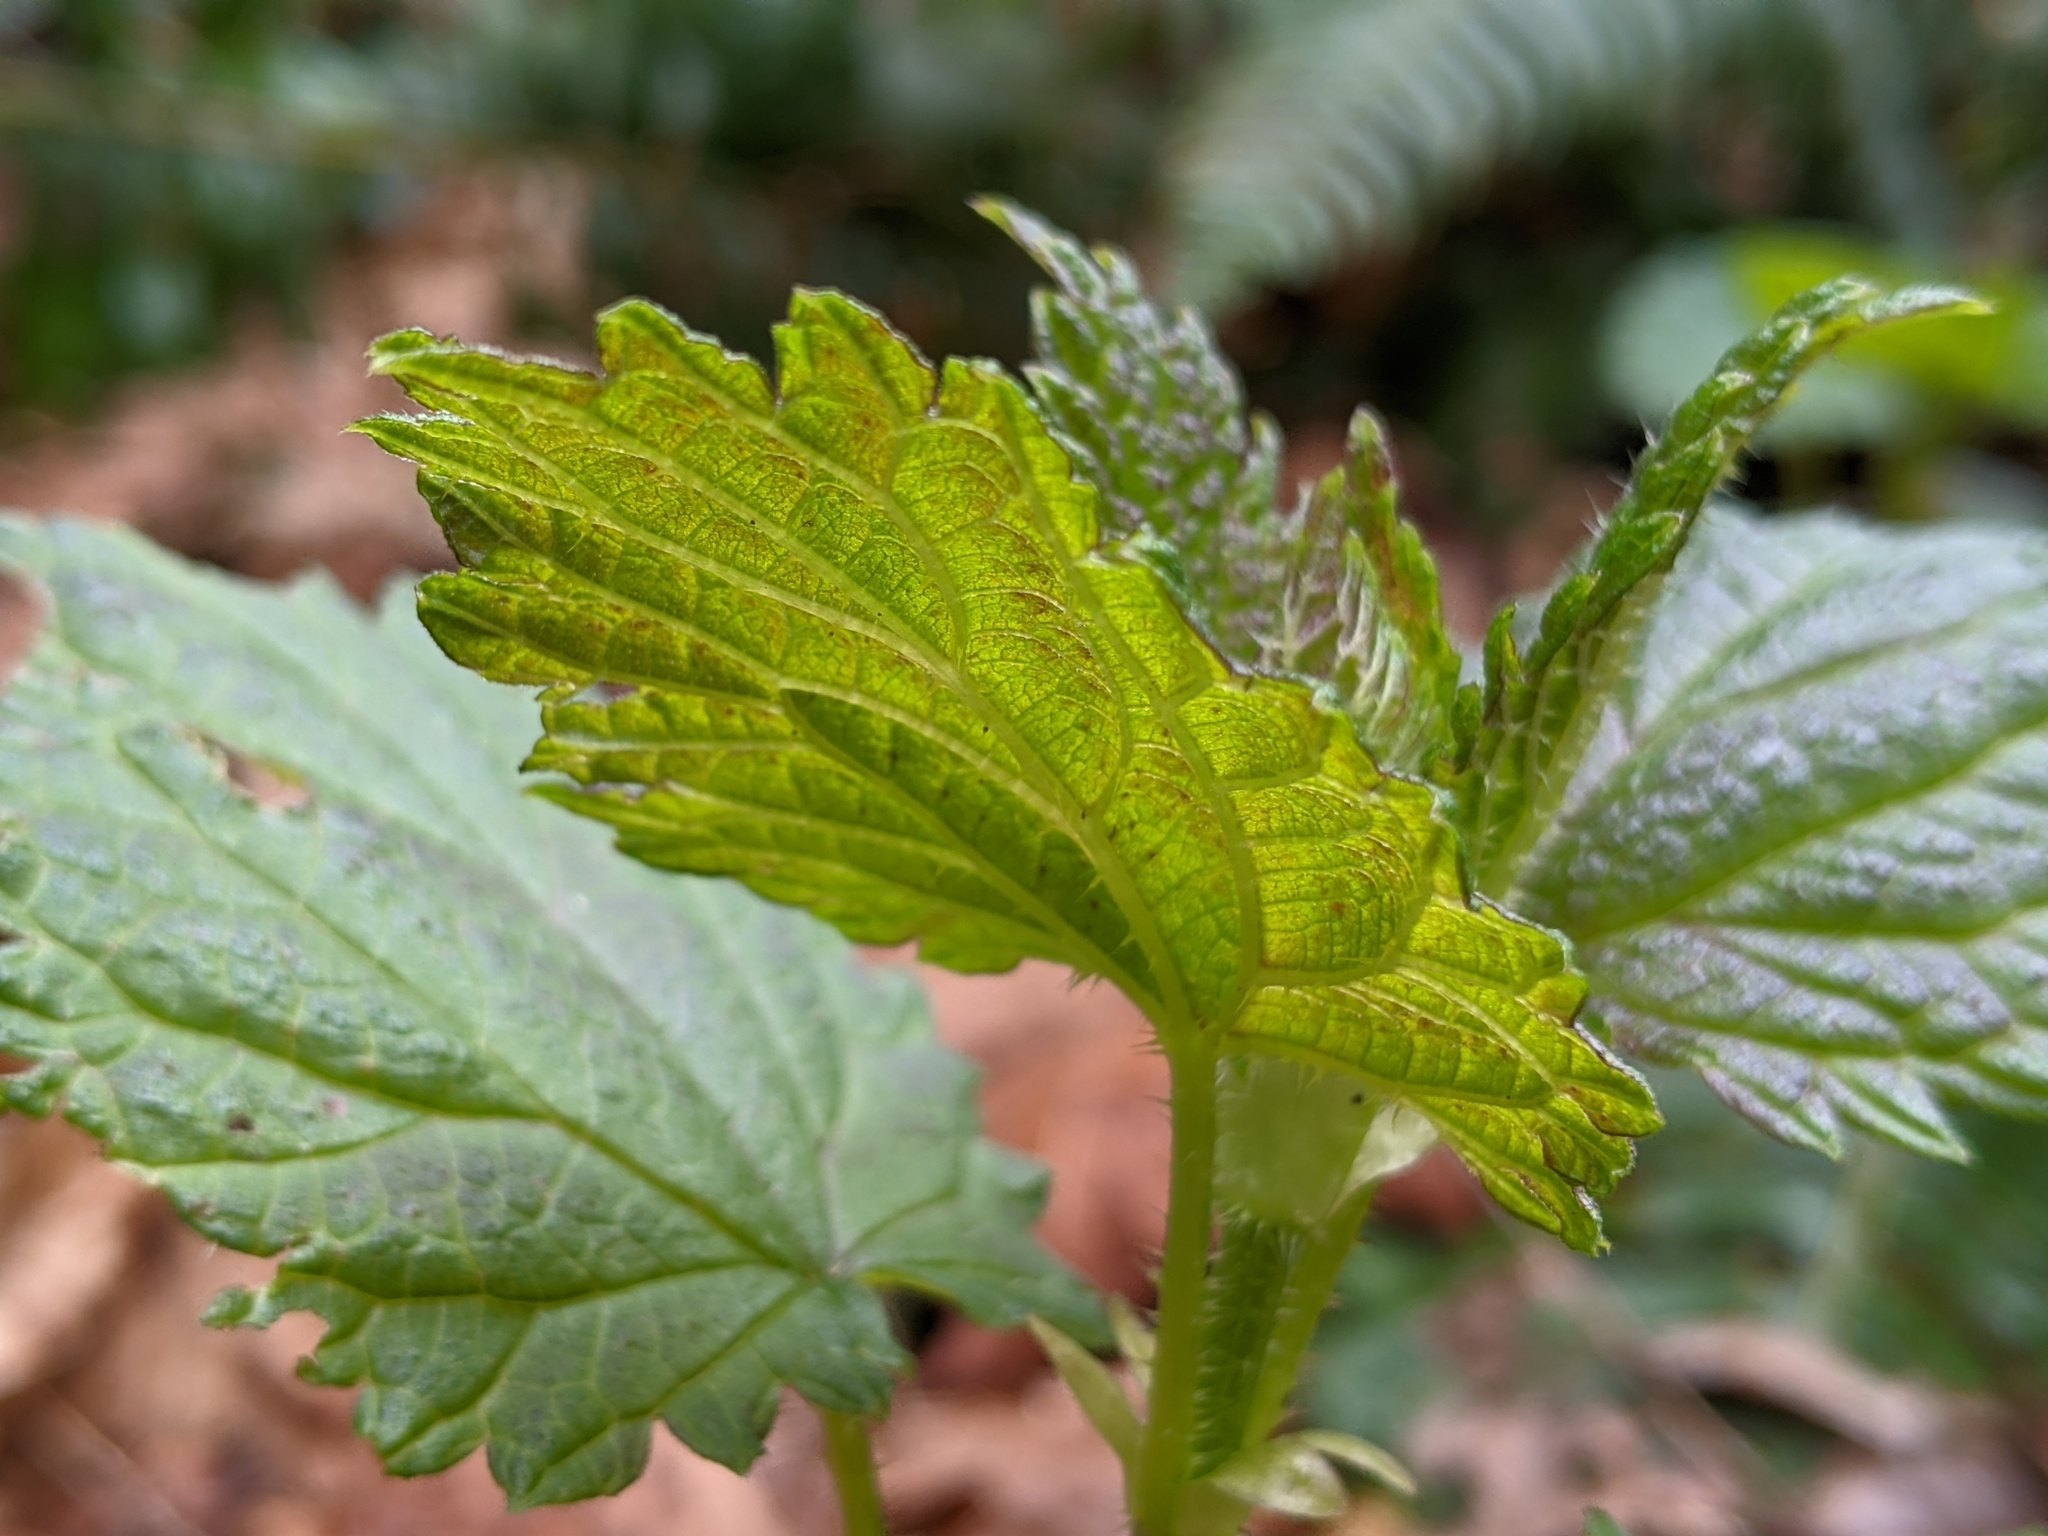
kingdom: Plantae
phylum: Tracheophyta
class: Magnoliopsida
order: Rosales
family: Urticaceae
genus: Urtica
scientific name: Urtica gracilis
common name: Slender stinging nettle
